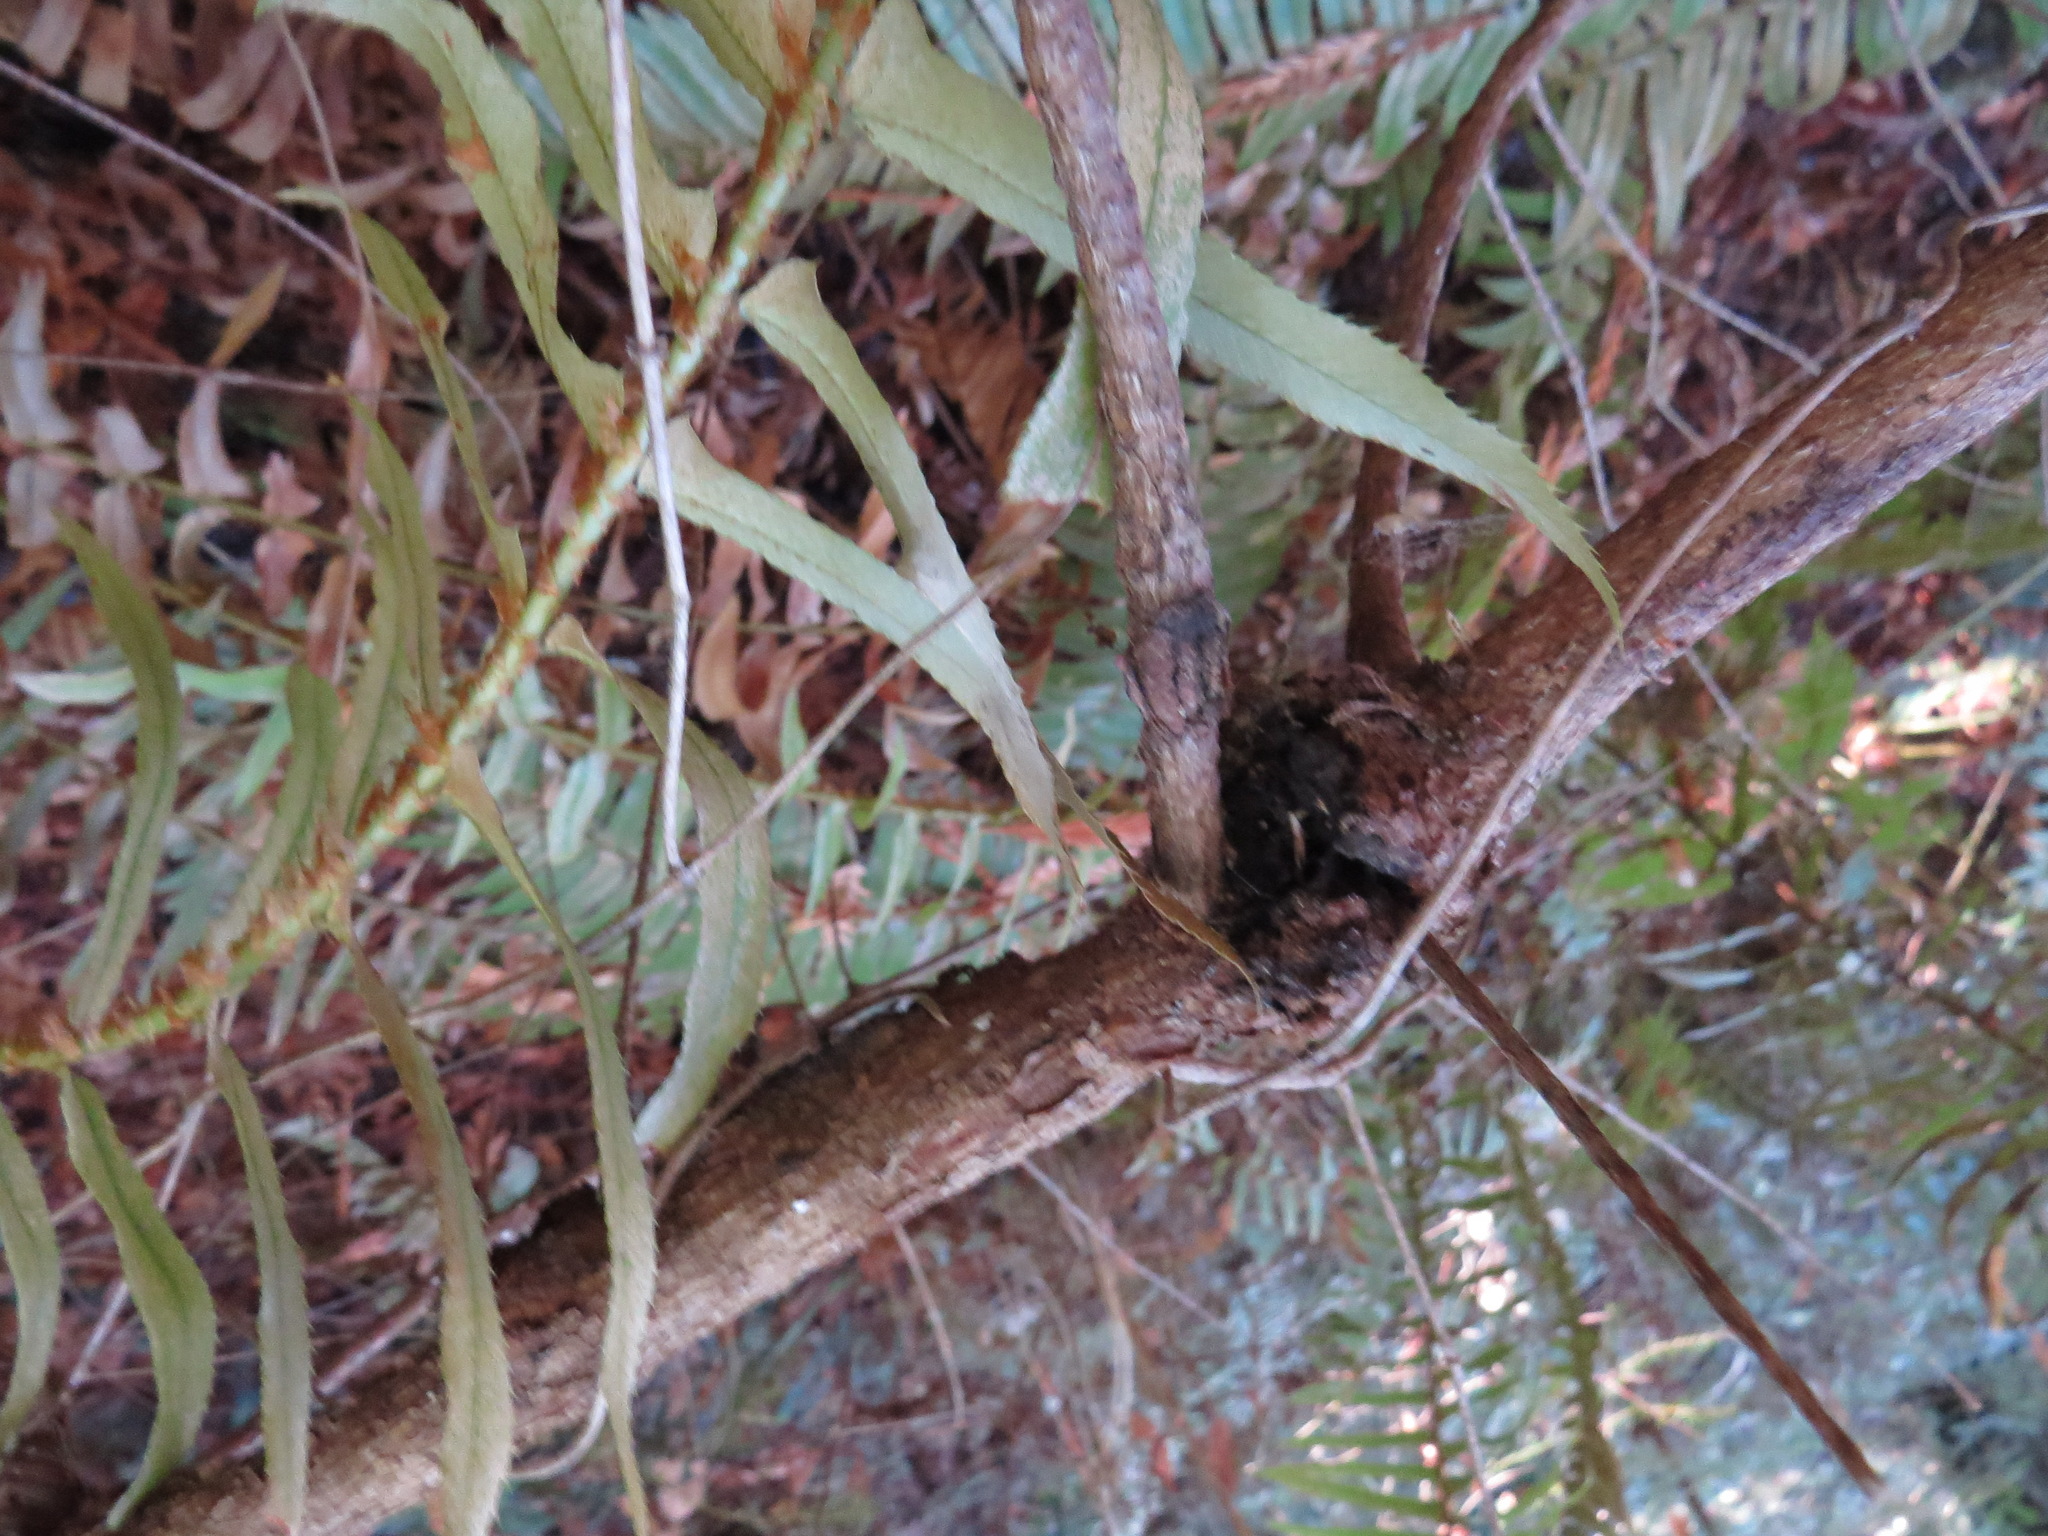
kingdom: Bacteria
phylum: Proteobacteria
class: Alphaproteobacteria
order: Rhizobiales
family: Rhizobiaceae
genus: Rhizobium
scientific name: Rhizobium Agrobacterium radiobacter
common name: Bacterial crown gall
